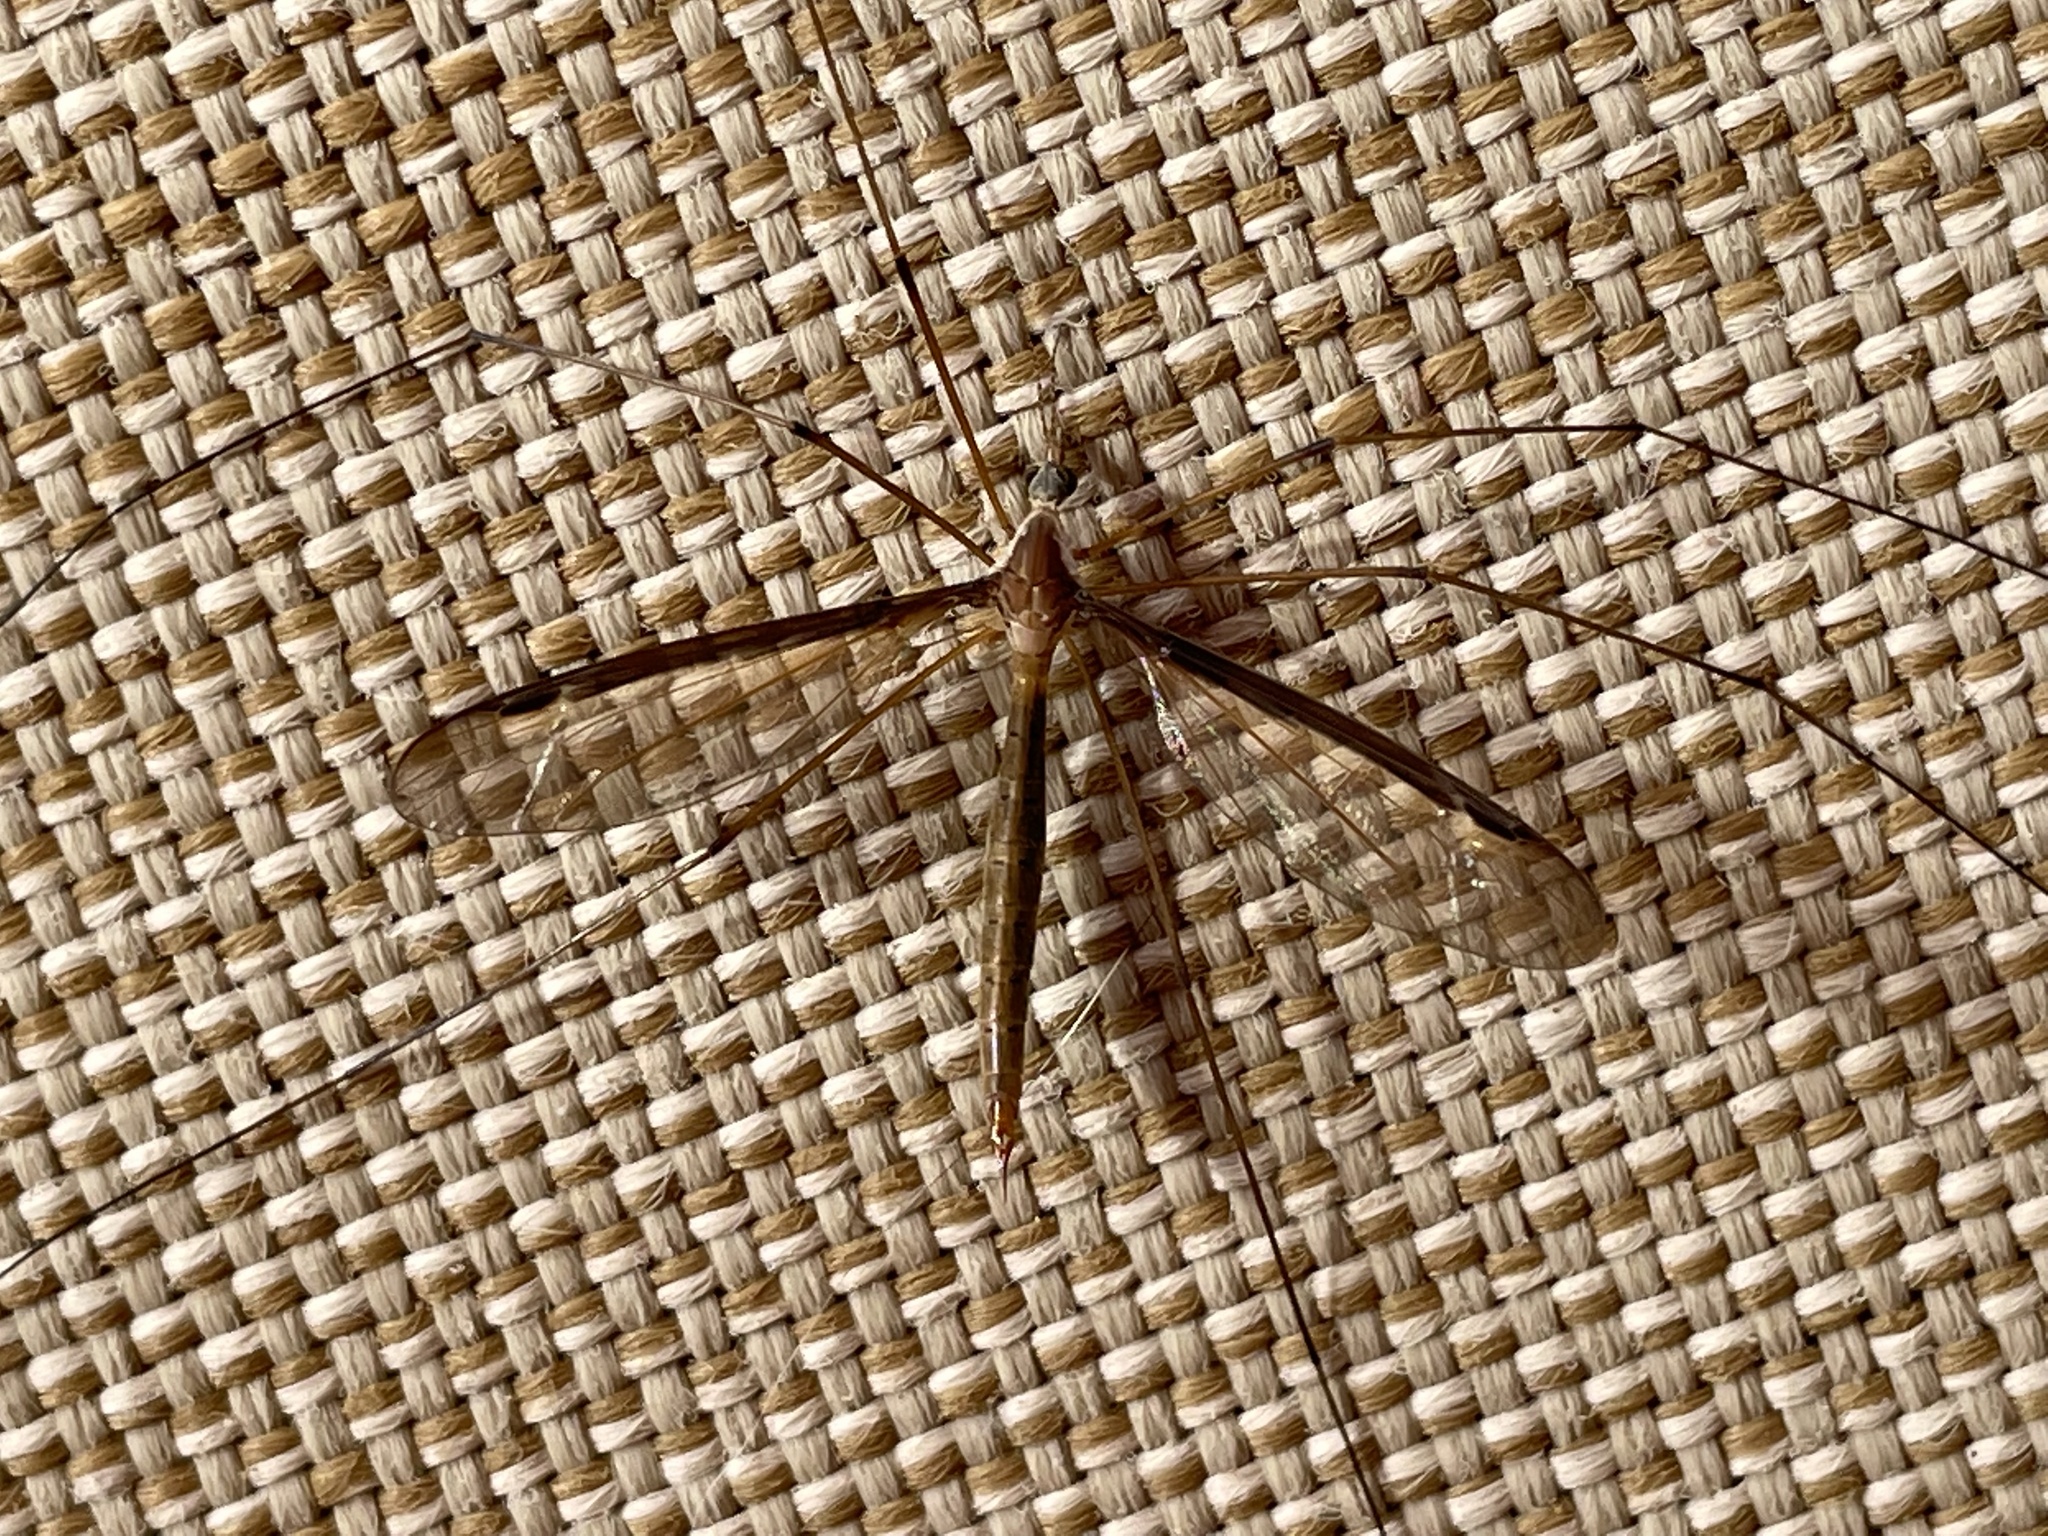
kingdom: Animalia
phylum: Arthropoda
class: Insecta
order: Diptera
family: Tipulidae
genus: Tipula
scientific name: Tipula sayi
